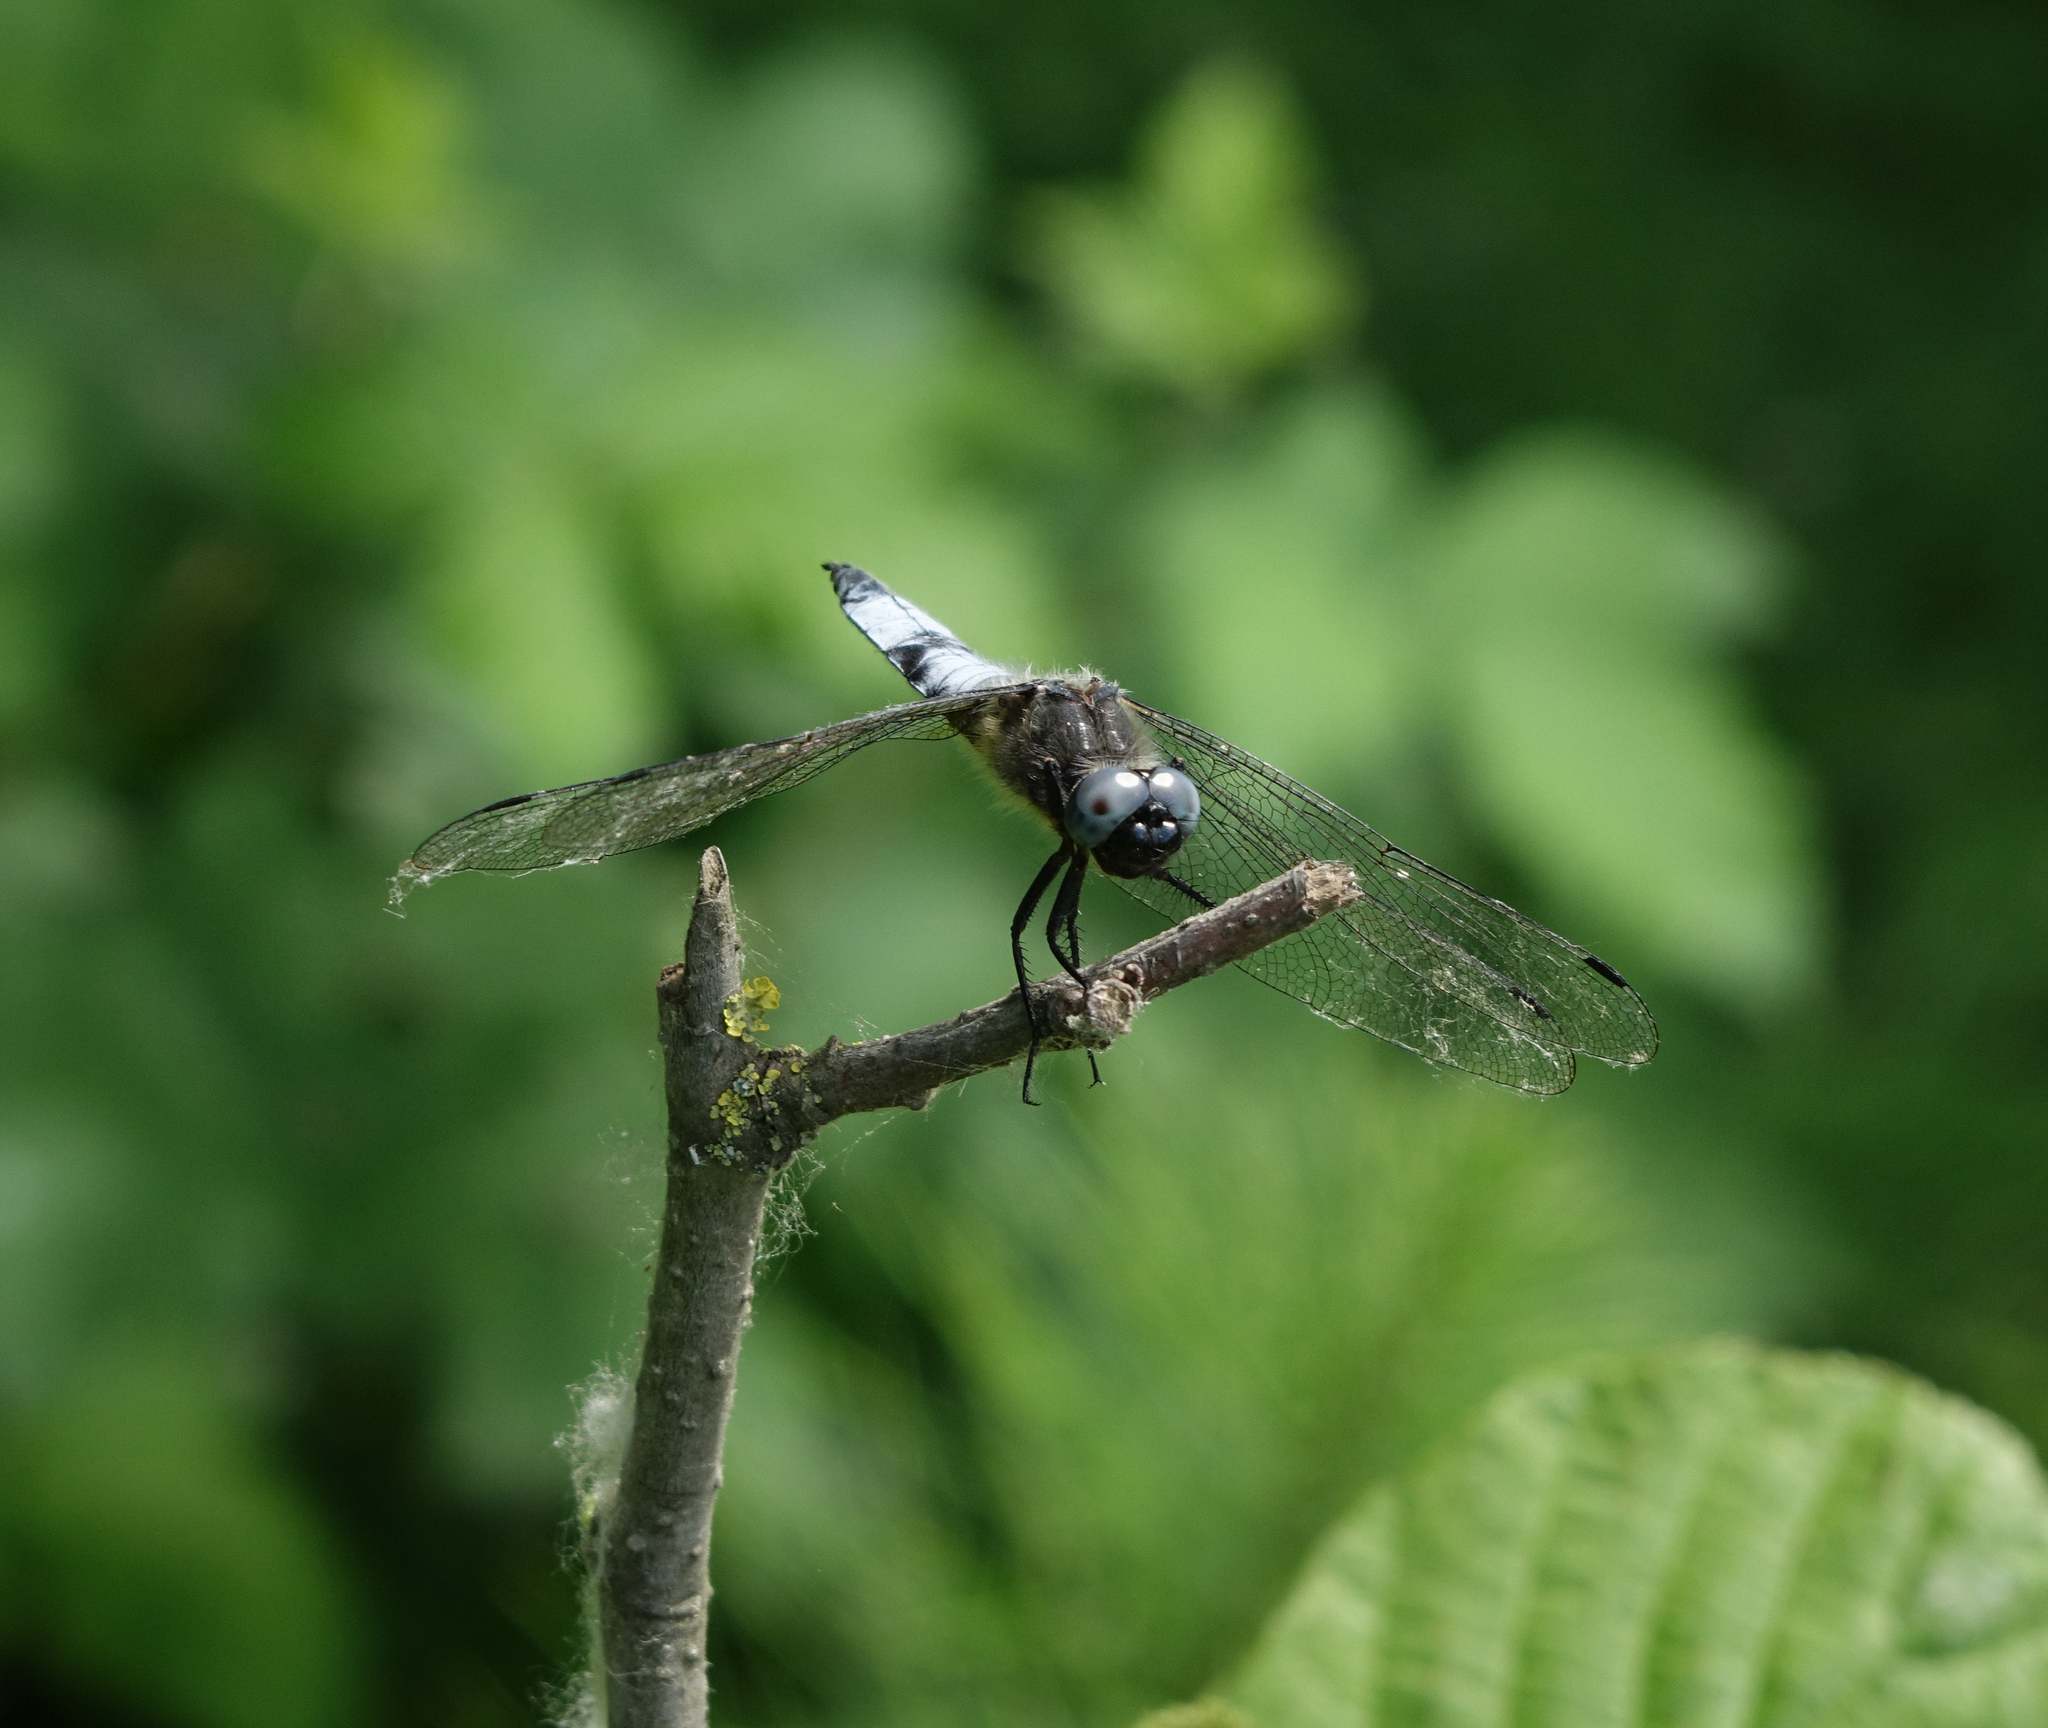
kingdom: Animalia
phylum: Arthropoda
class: Insecta
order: Odonata
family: Libellulidae
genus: Libellula
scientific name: Libellula fulva
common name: Blue chaser
